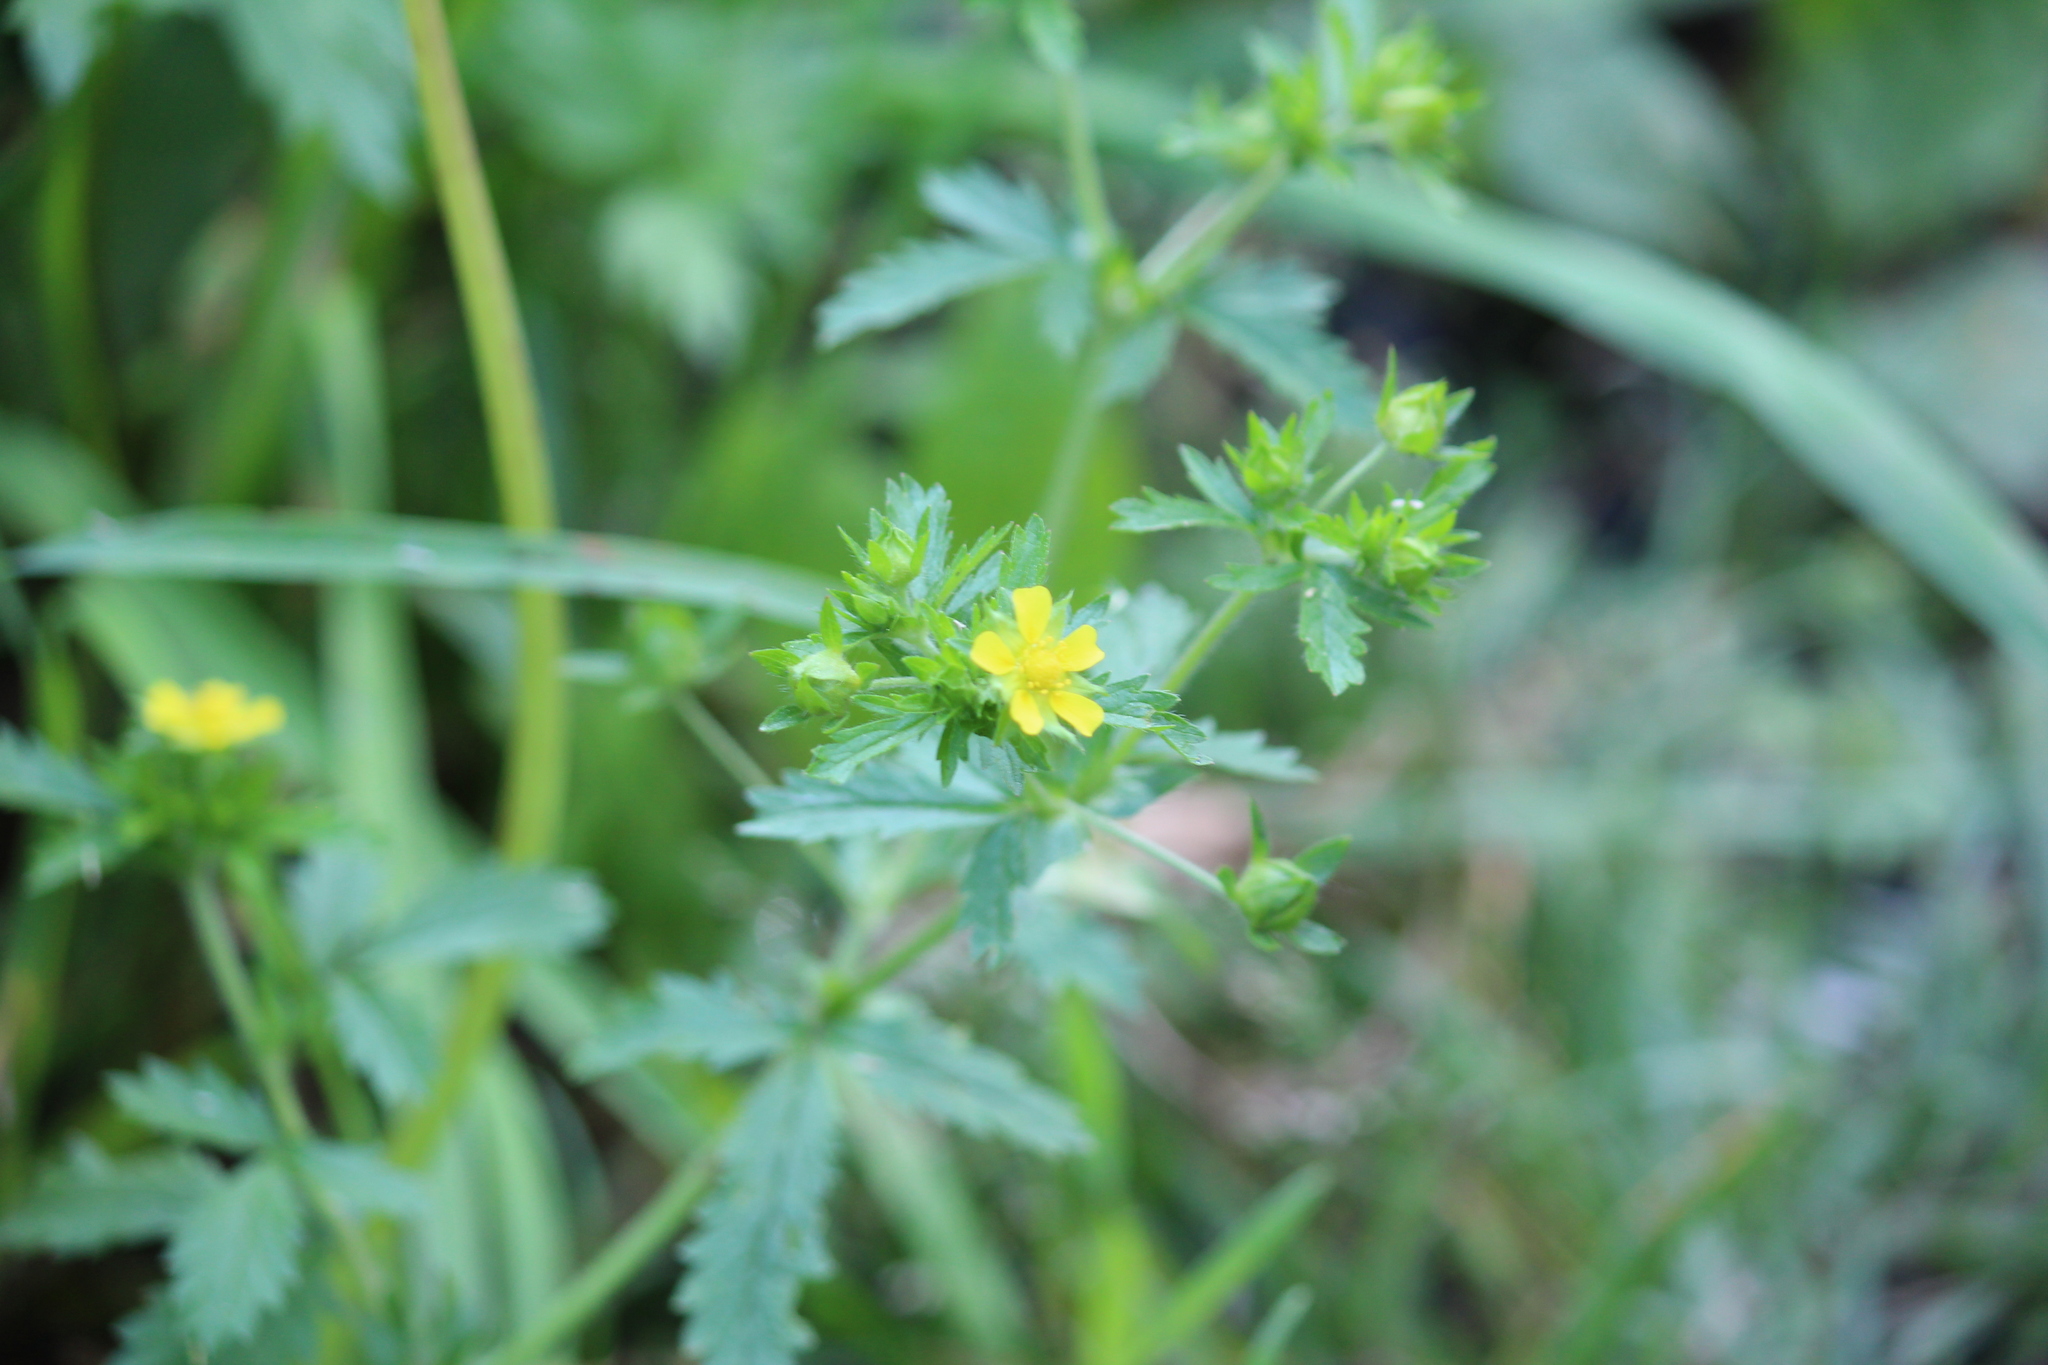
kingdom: Plantae
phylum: Tracheophyta
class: Magnoliopsida
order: Rosales
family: Rosaceae
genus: Potentilla
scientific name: Potentilla norvegica
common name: Ternate-leaved cinquefoil
